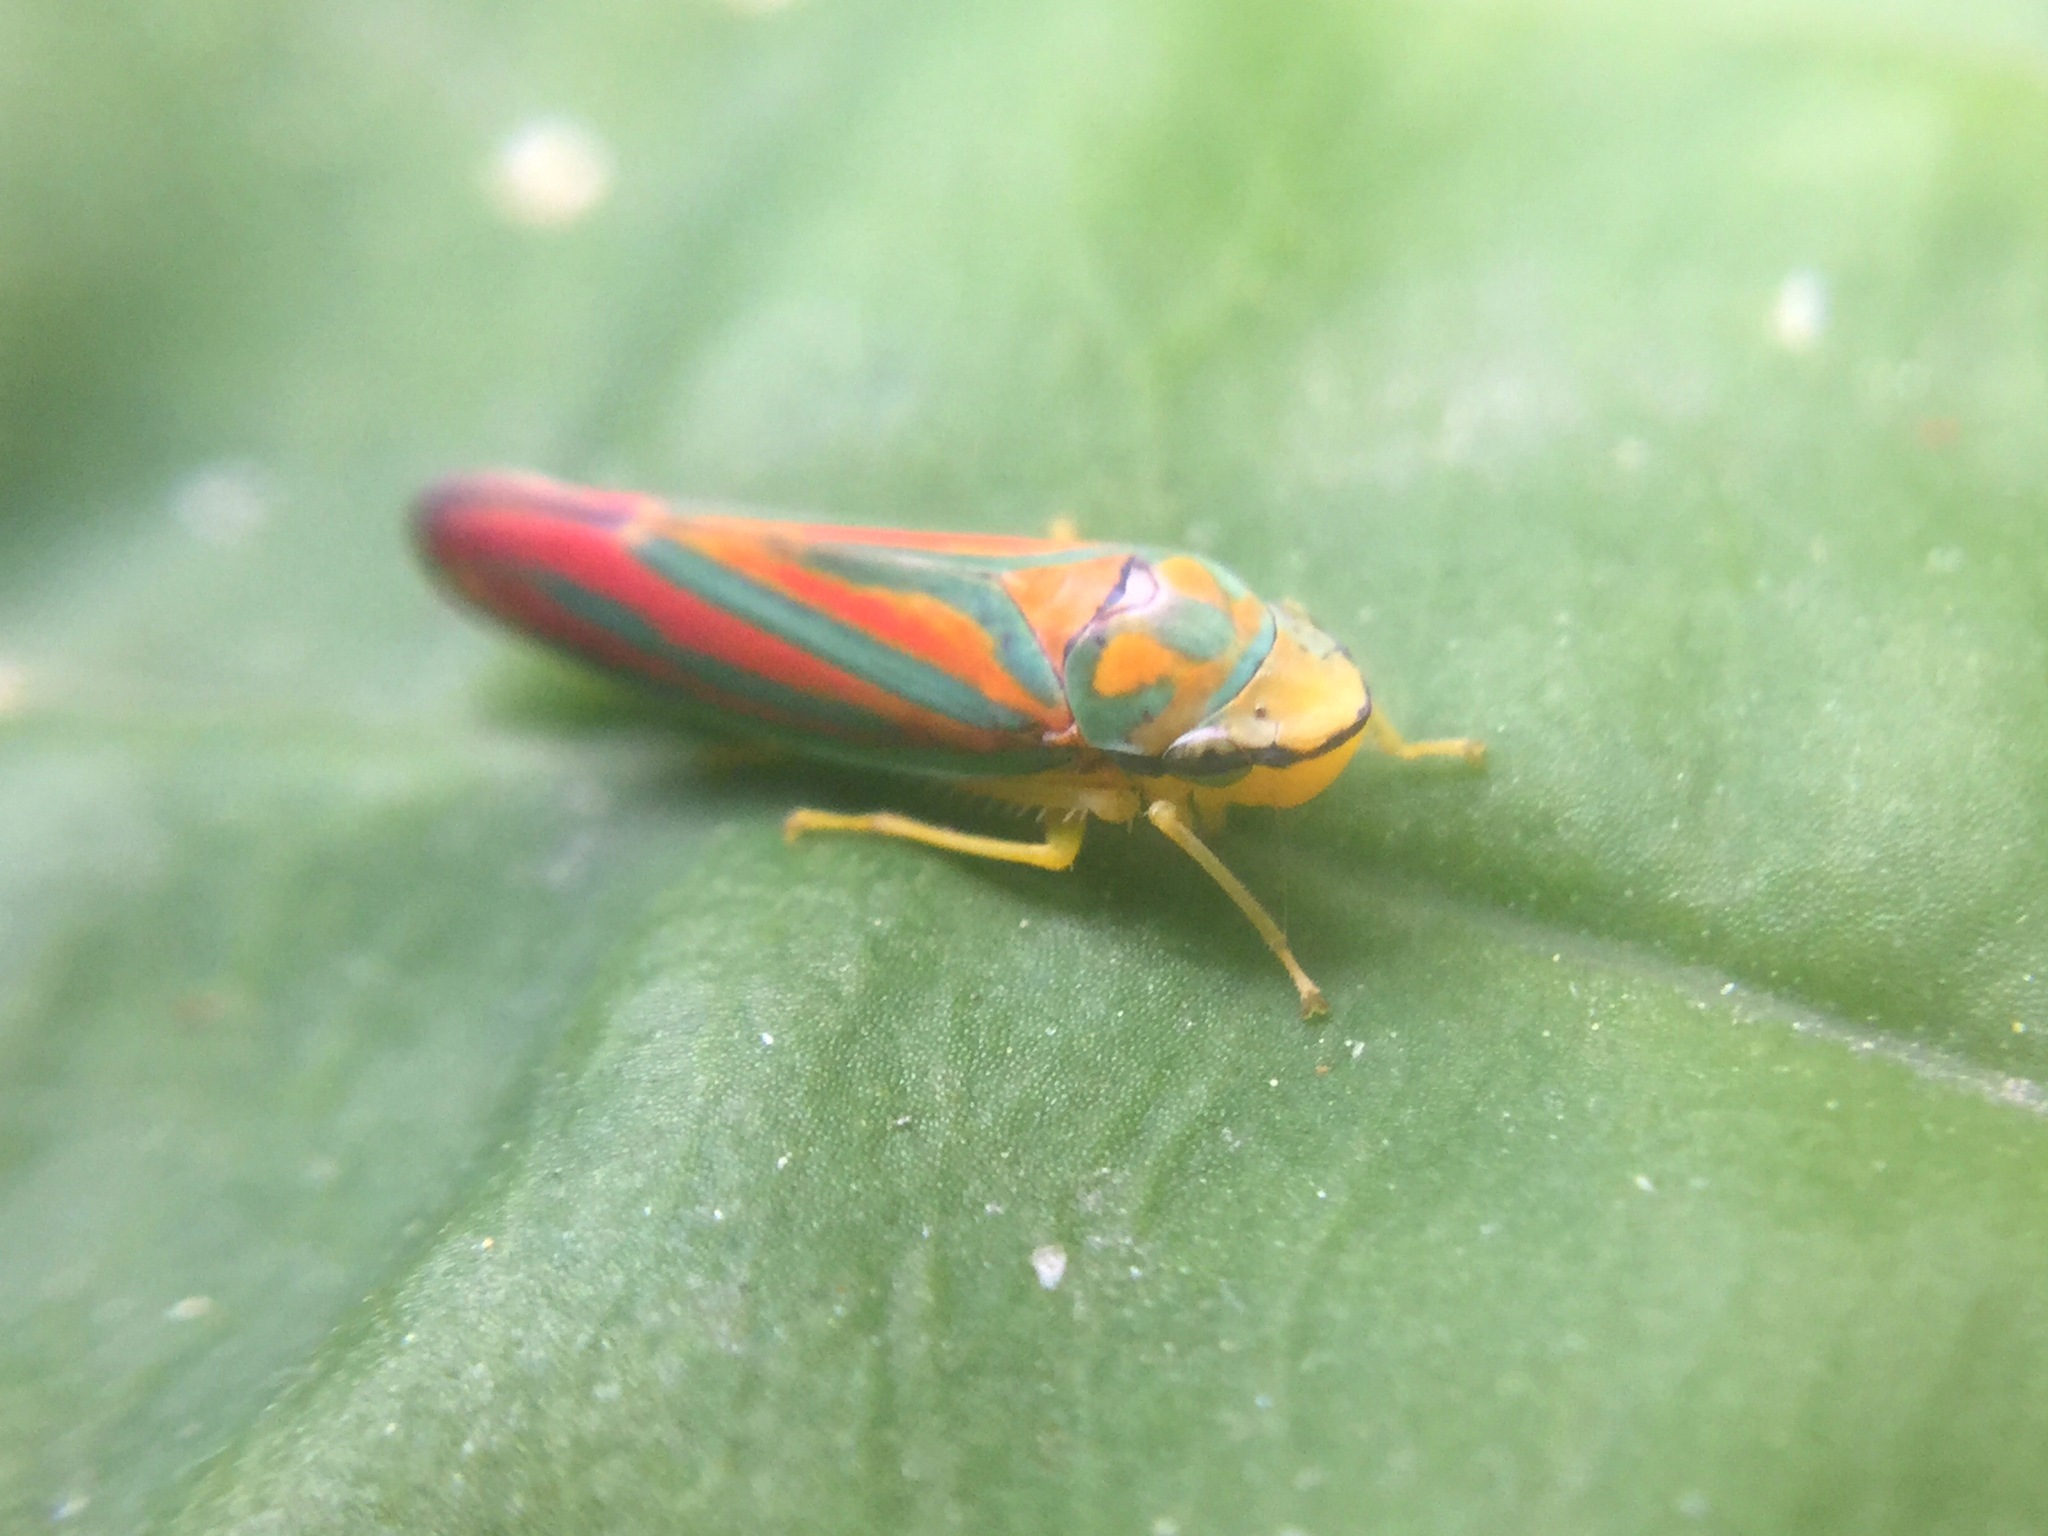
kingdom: Animalia
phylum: Arthropoda
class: Insecta
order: Hemiptera
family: Cicadellidae
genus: Graphocephala
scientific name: Graphocephala coccinea
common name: Candy-striped leafhopper
